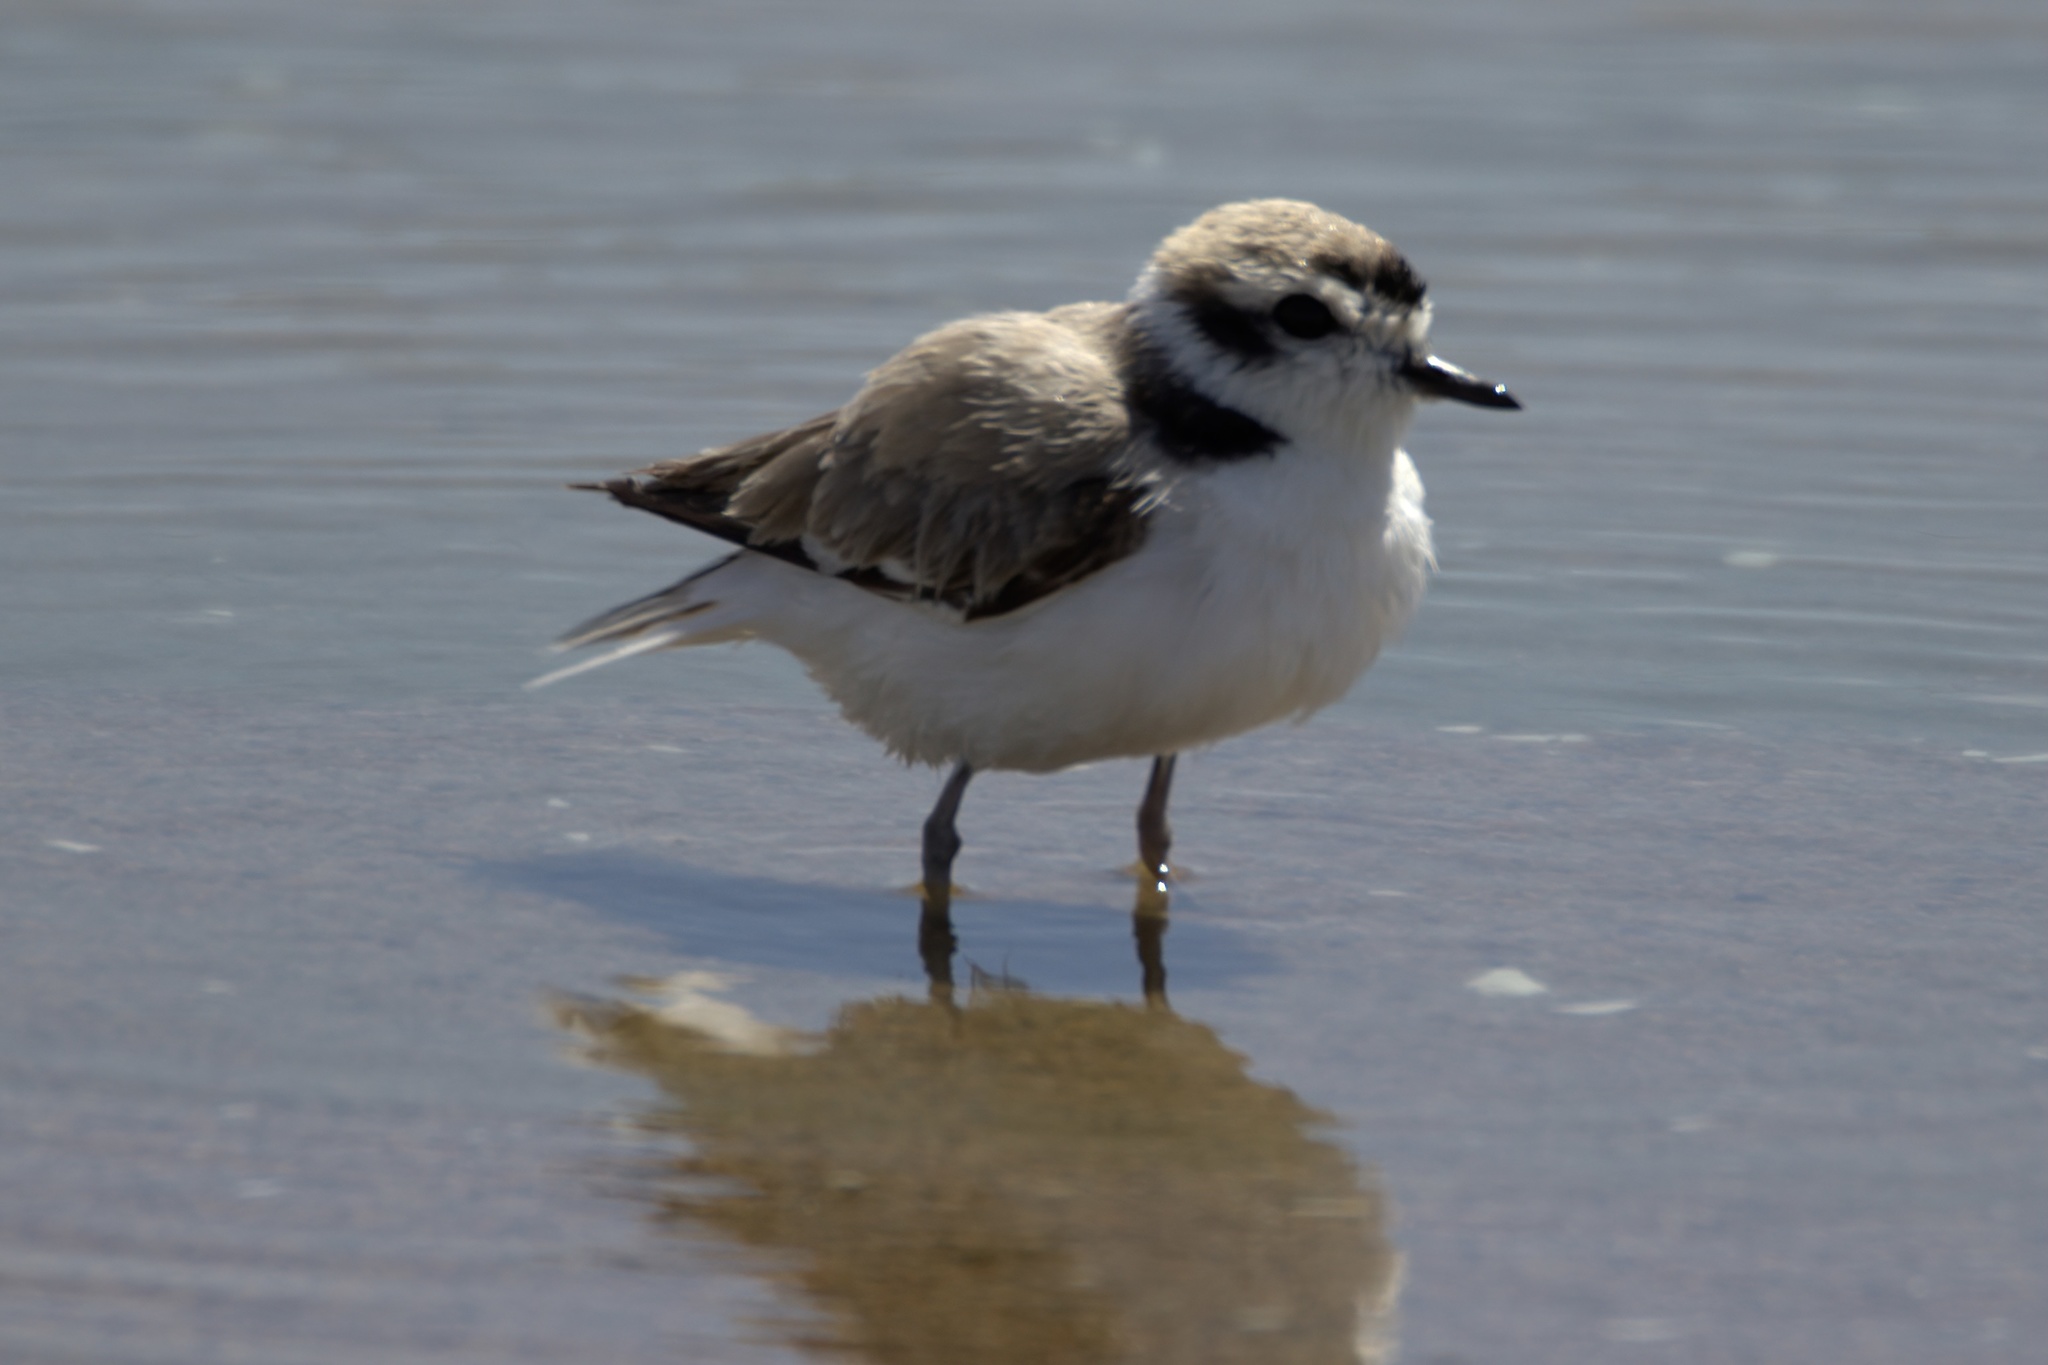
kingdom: Animalia
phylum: Chordata
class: Aves
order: Charadriiformes
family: Charadriidae
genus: Anarhynchus
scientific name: Anarhynchus
